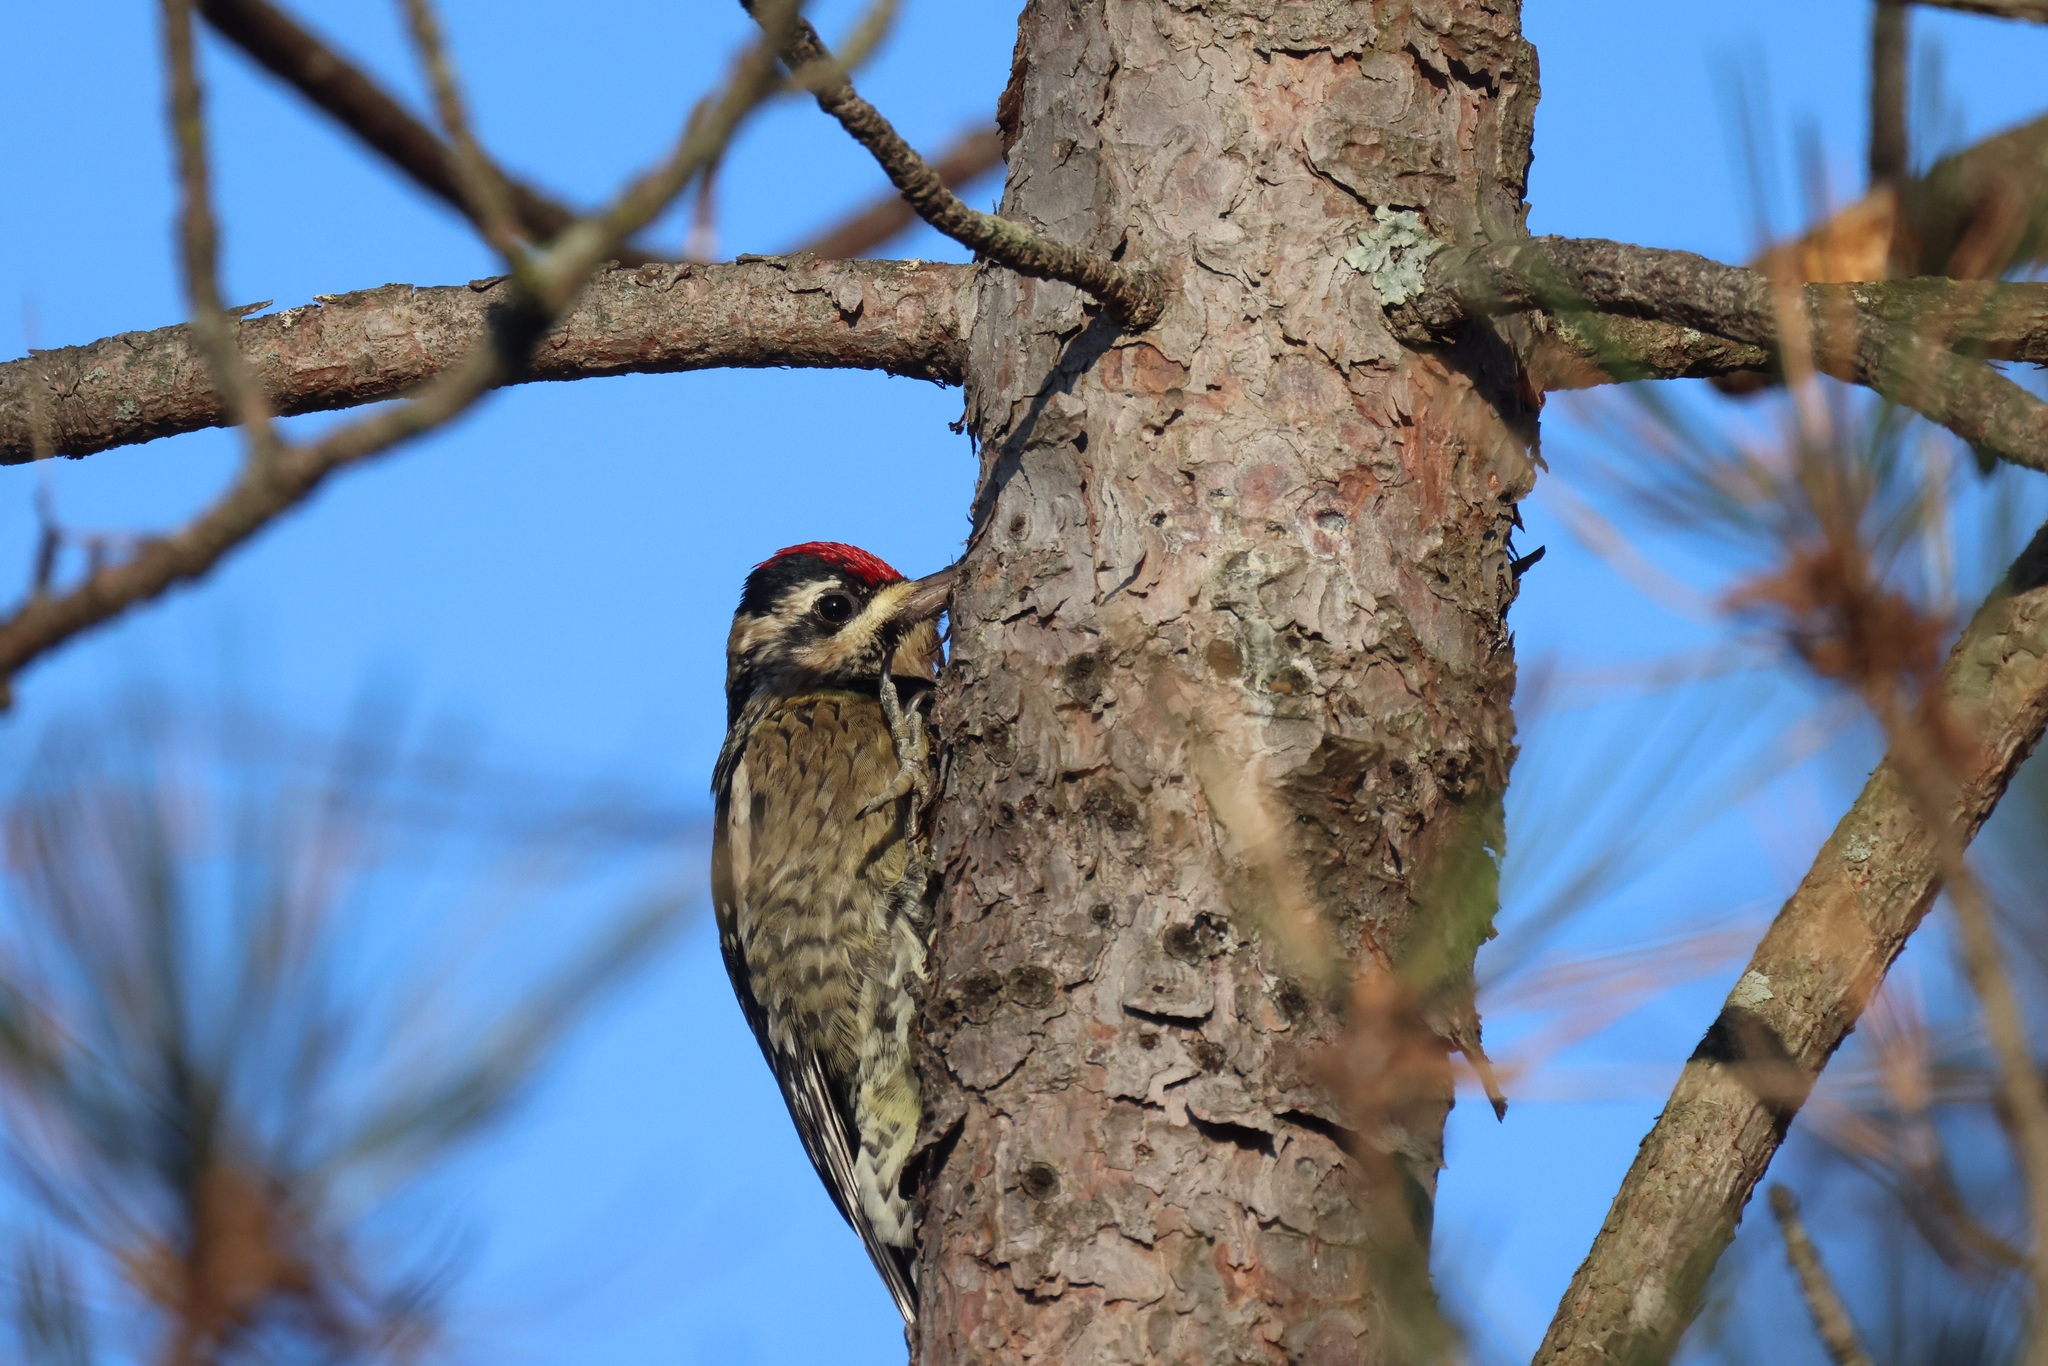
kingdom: Animalia
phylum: Chordata
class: Aves
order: Piciformes
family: Picidae
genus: Sphyrapicus
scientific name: Sphyrapicus varius
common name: Yellow-bellied sapsucker
